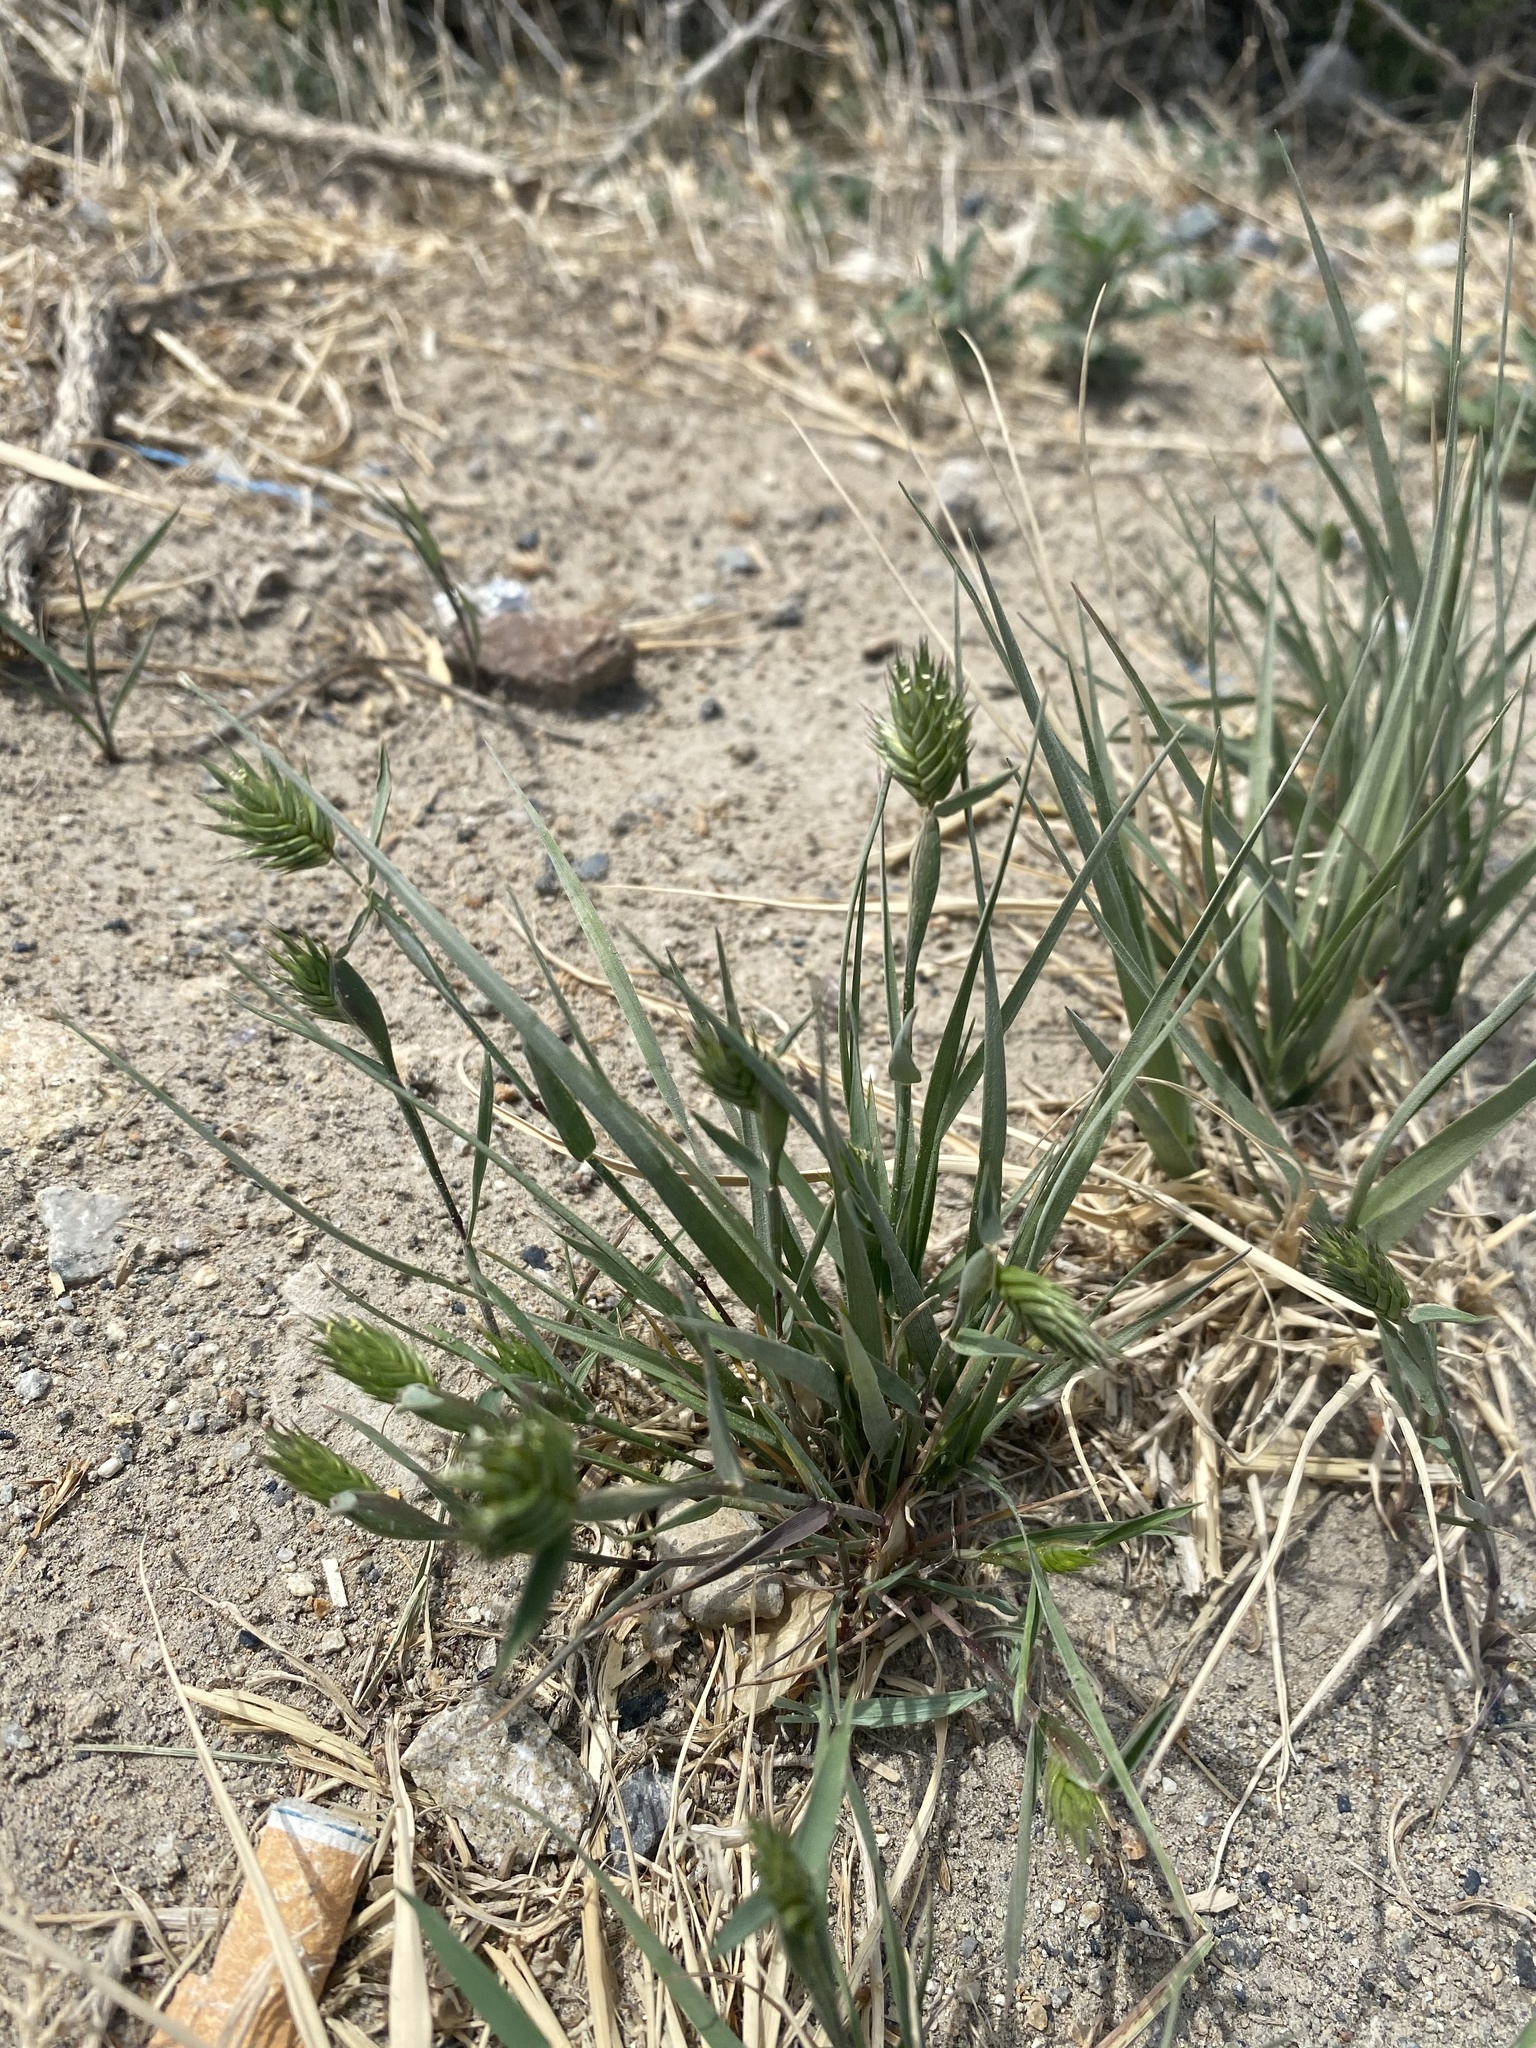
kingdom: Plantae
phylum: Tracheophyta
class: Liliopsida
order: Poales
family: Poaceae
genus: Eremopyrum
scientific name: Eremopyrum triticeum
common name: Annual wheatgrass
